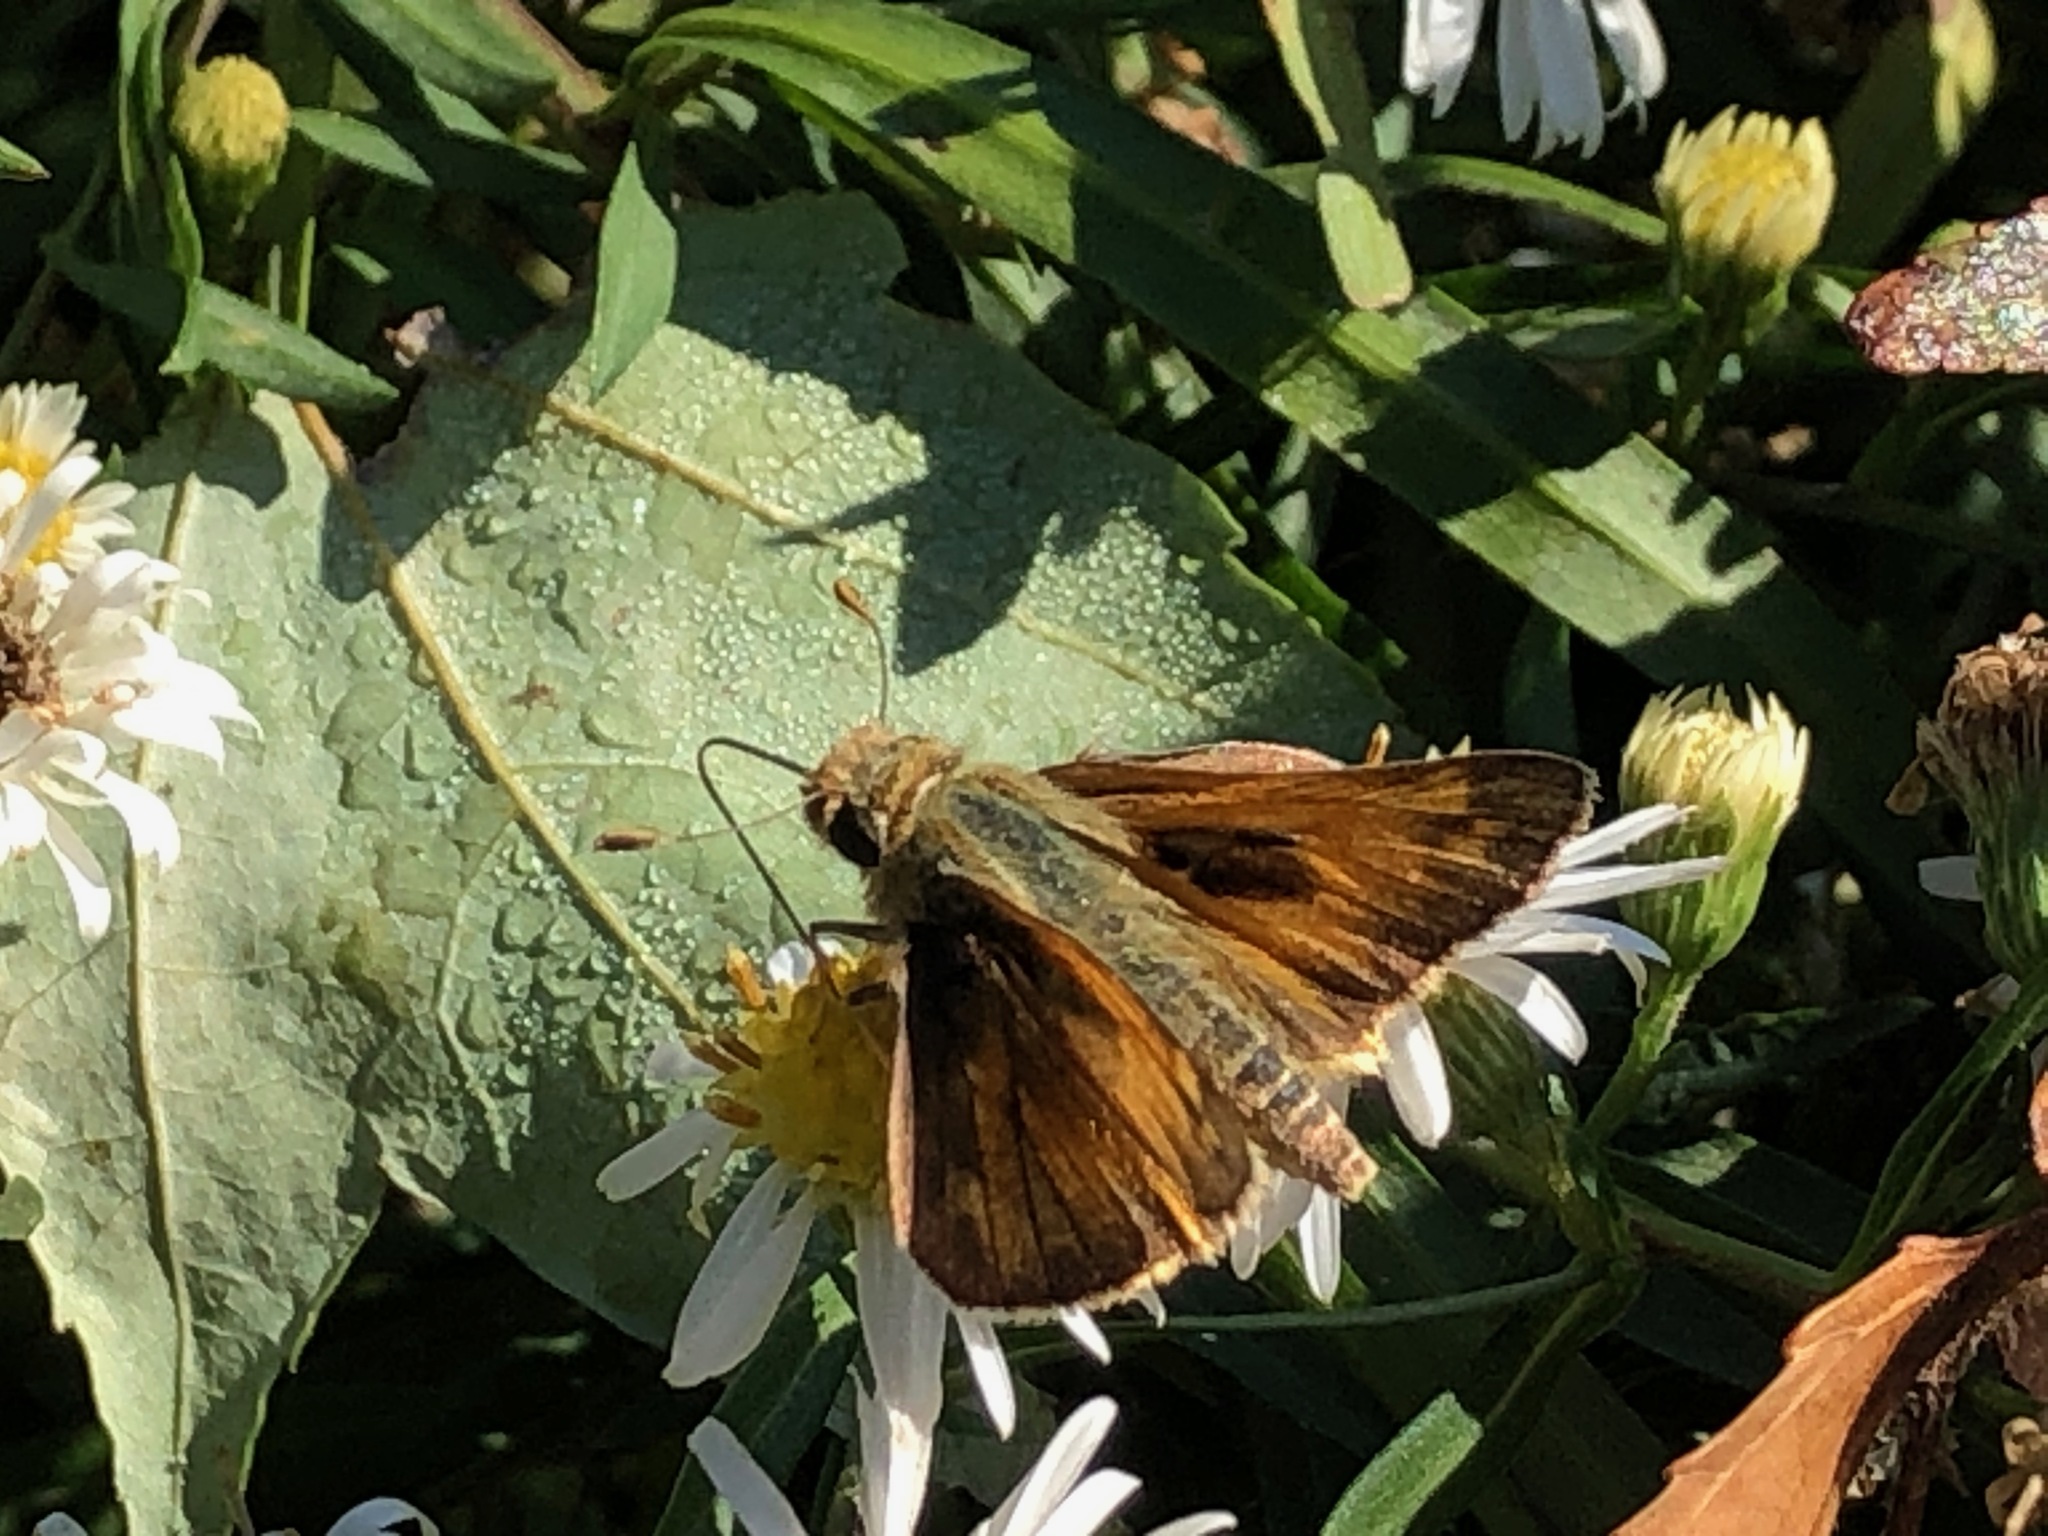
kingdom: Animalia
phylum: Arthropoda
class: Insecta
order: Lepidoptera
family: Hesperiidae
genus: Atalopedes
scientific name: Atalopedes
